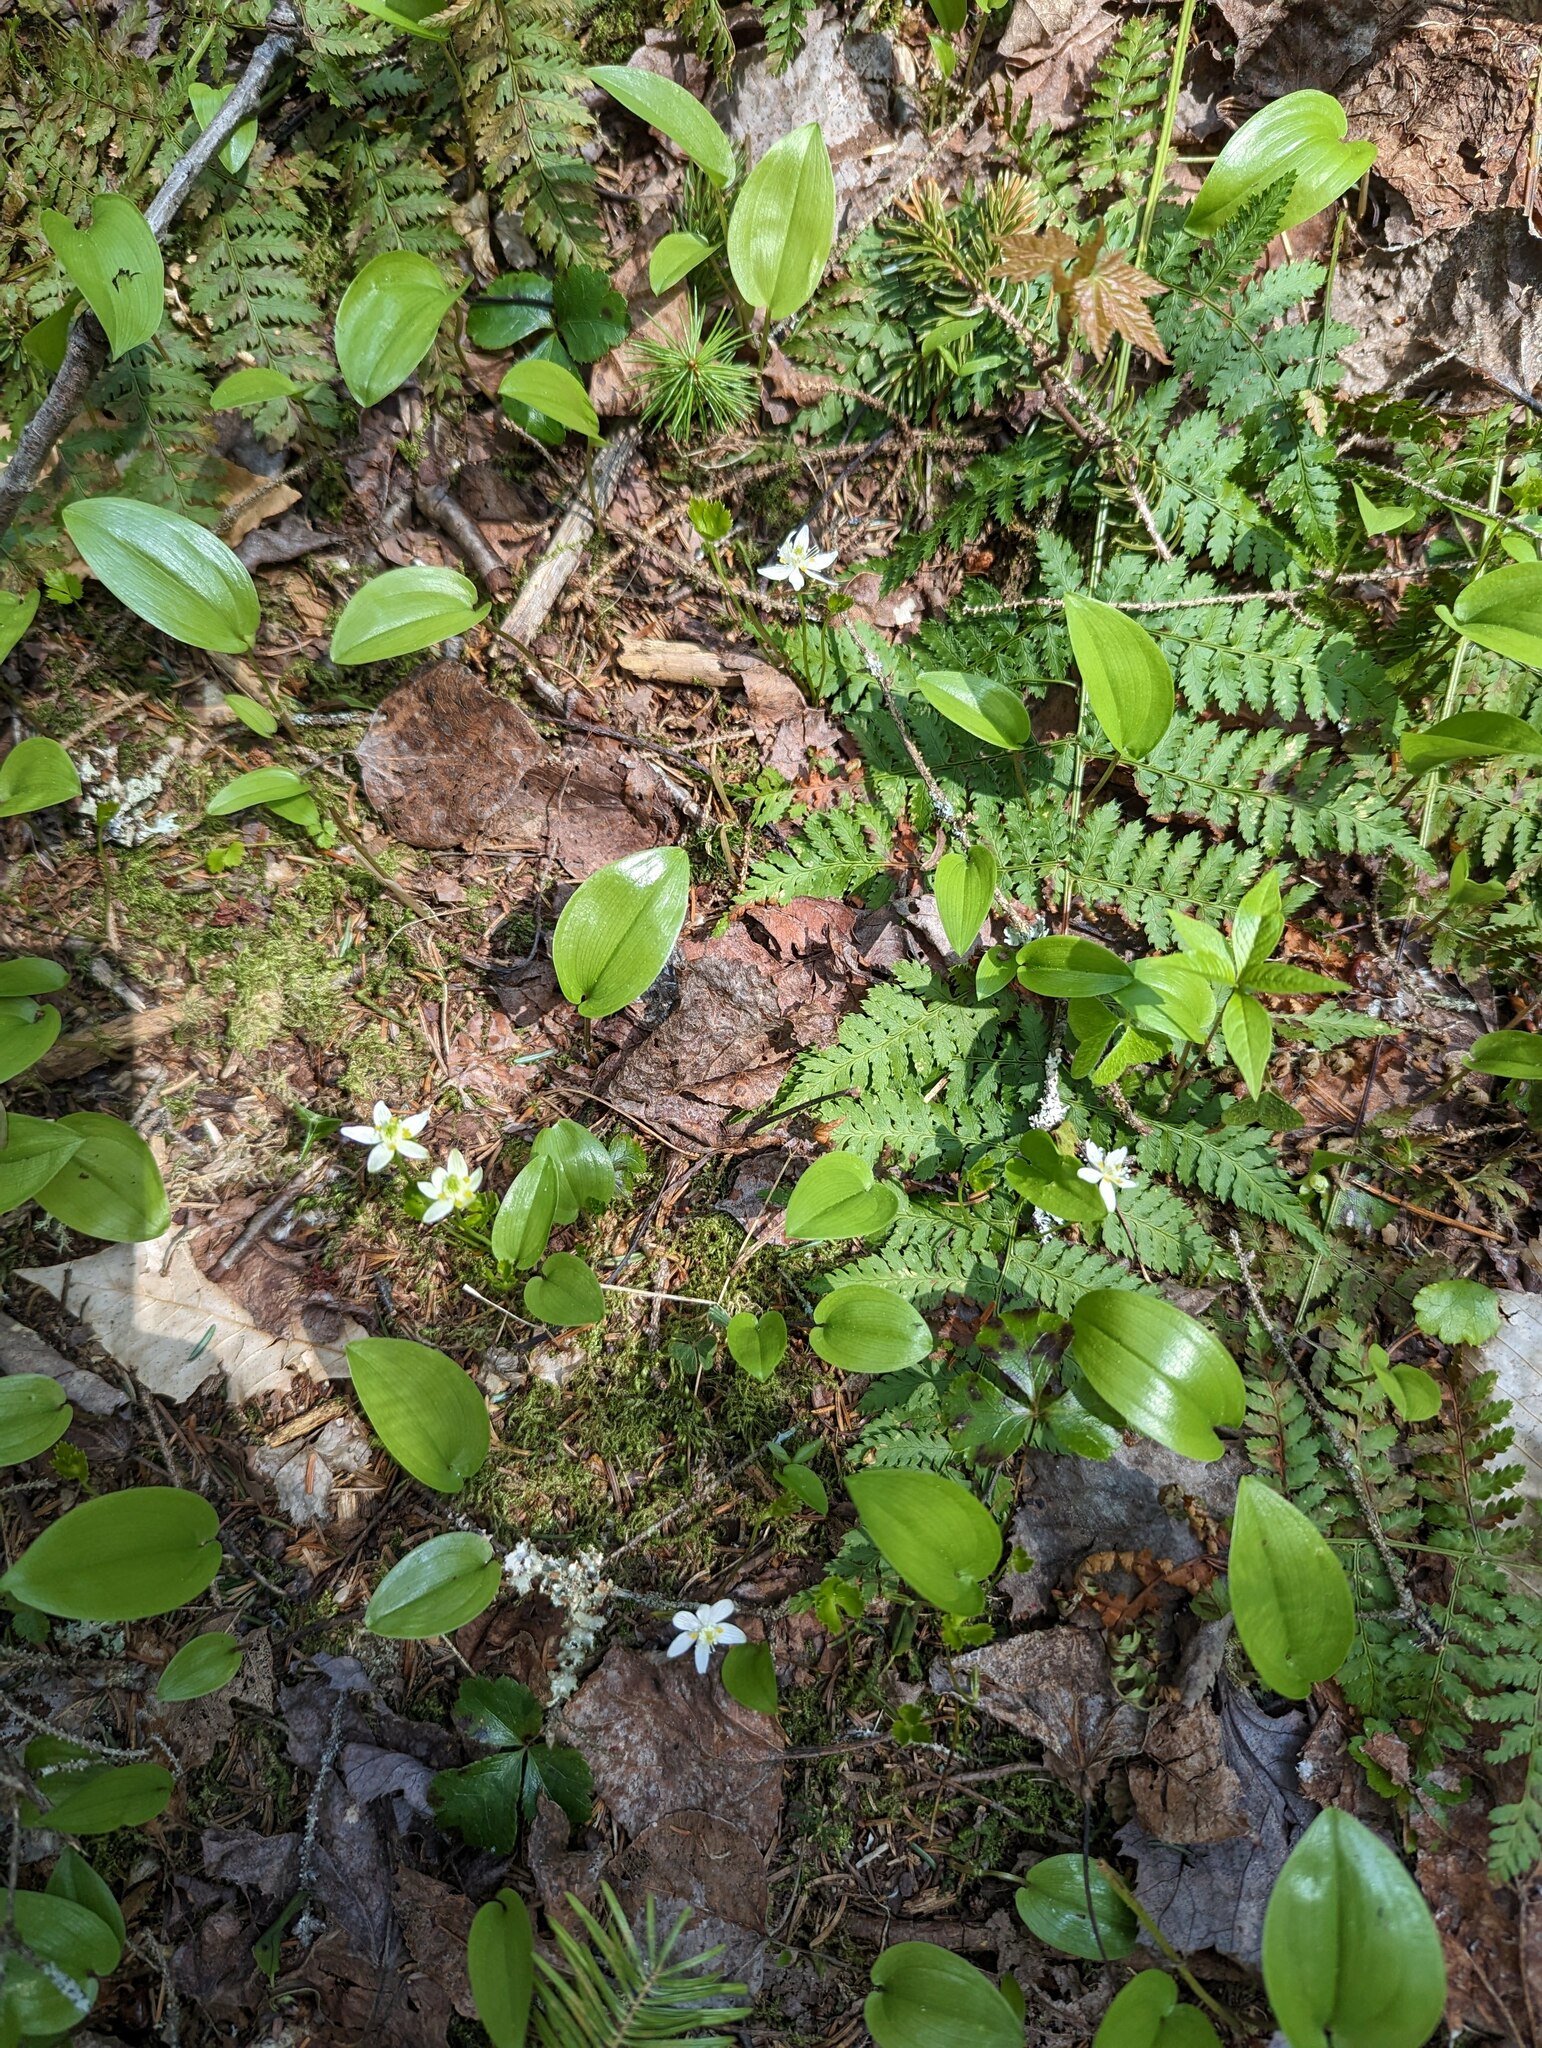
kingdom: Plantae
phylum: Tracheophyta
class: Liliopsida
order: Asparagales
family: Asparagaceae
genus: Maianthemum
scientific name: Maianthemum canadense
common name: False lily-of-the-valley
